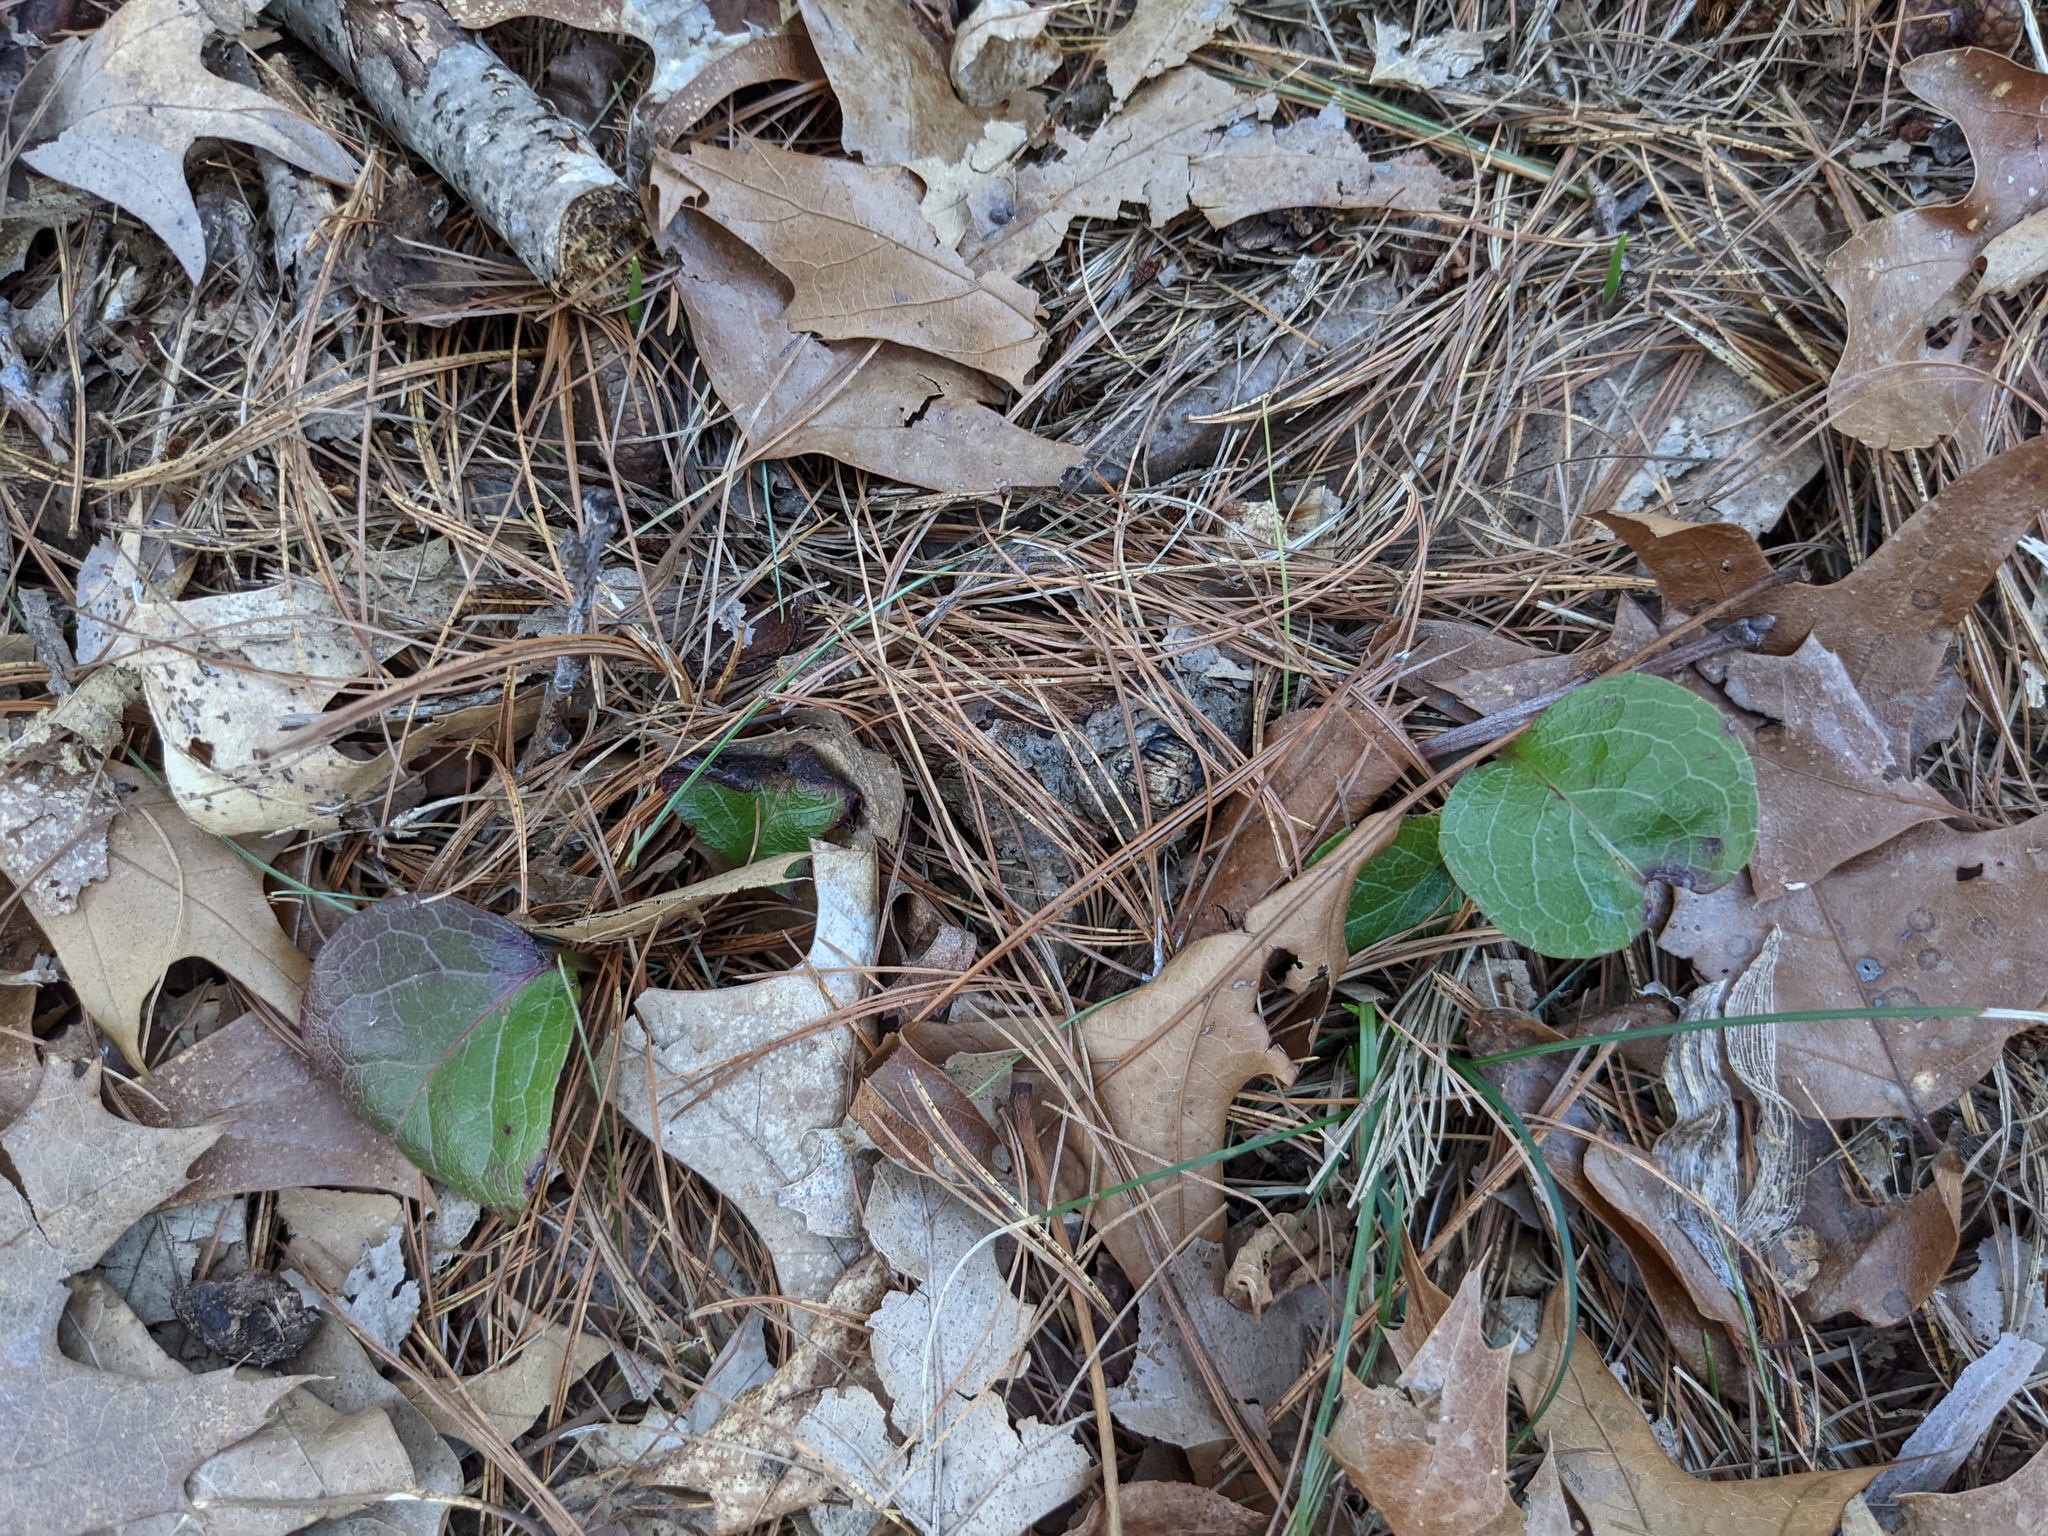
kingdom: Plantae
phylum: Tracheophyta
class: Magnoliopsida
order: Ericales
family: Ericaceae
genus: Pyrola
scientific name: Pyrola americana
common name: American wintergreen
